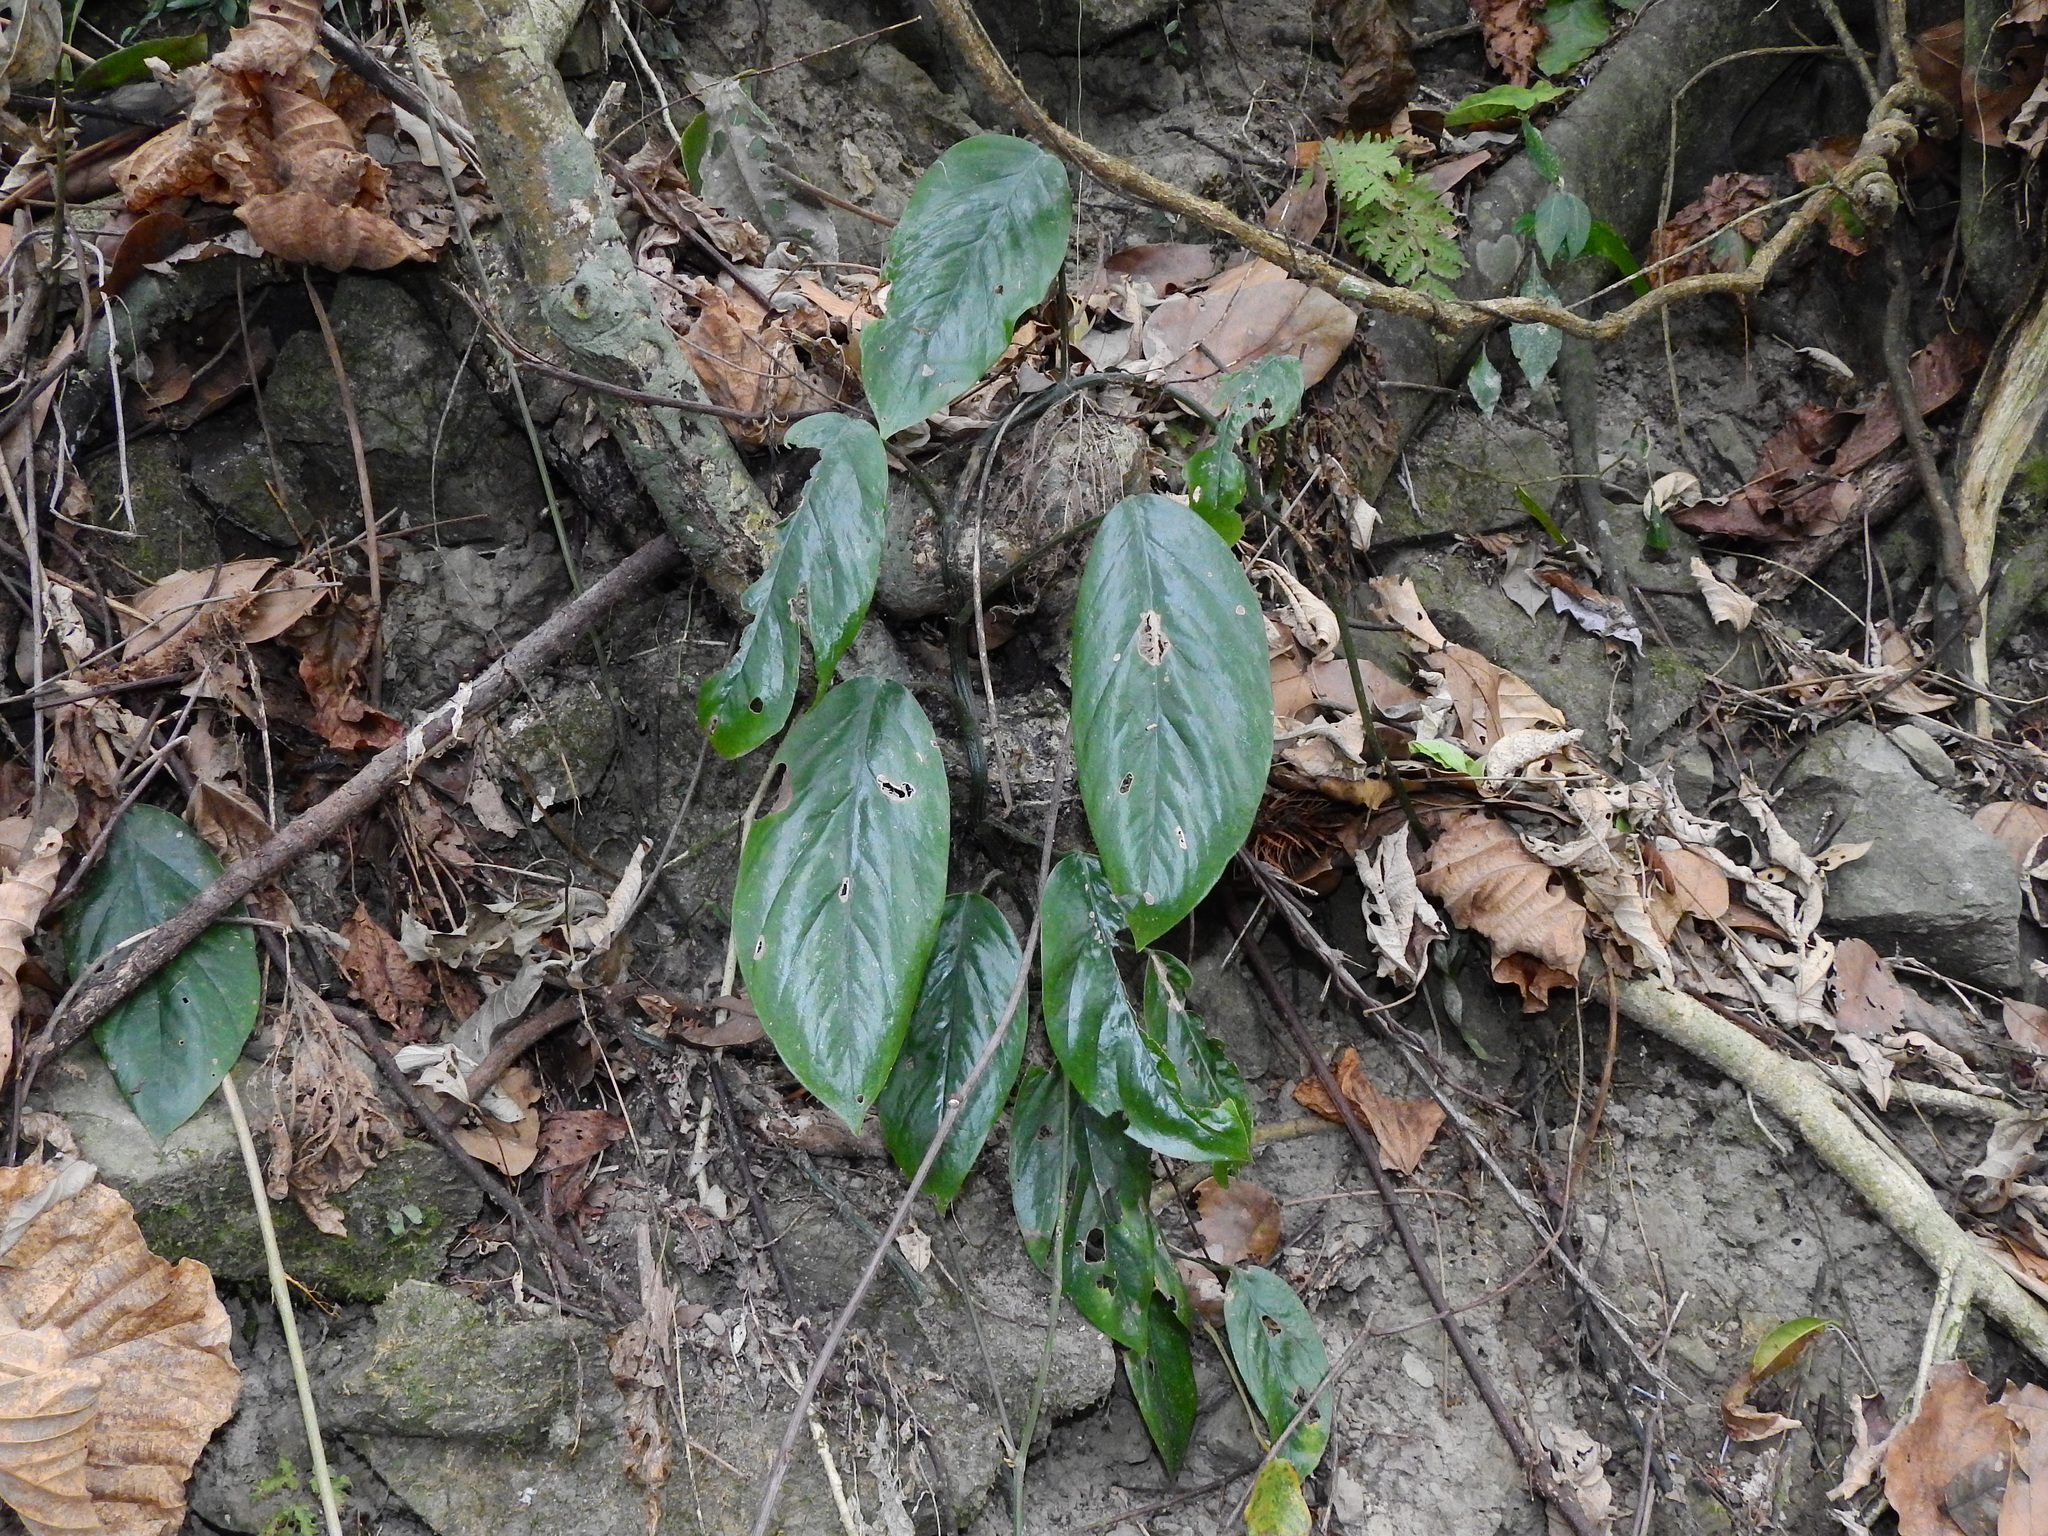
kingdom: Plantae
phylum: Tracheophyta
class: Liliopsida
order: Alismatales
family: Araceae
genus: Epipremnum
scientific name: Epipremnum pinnatum
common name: Centipede tongavine
